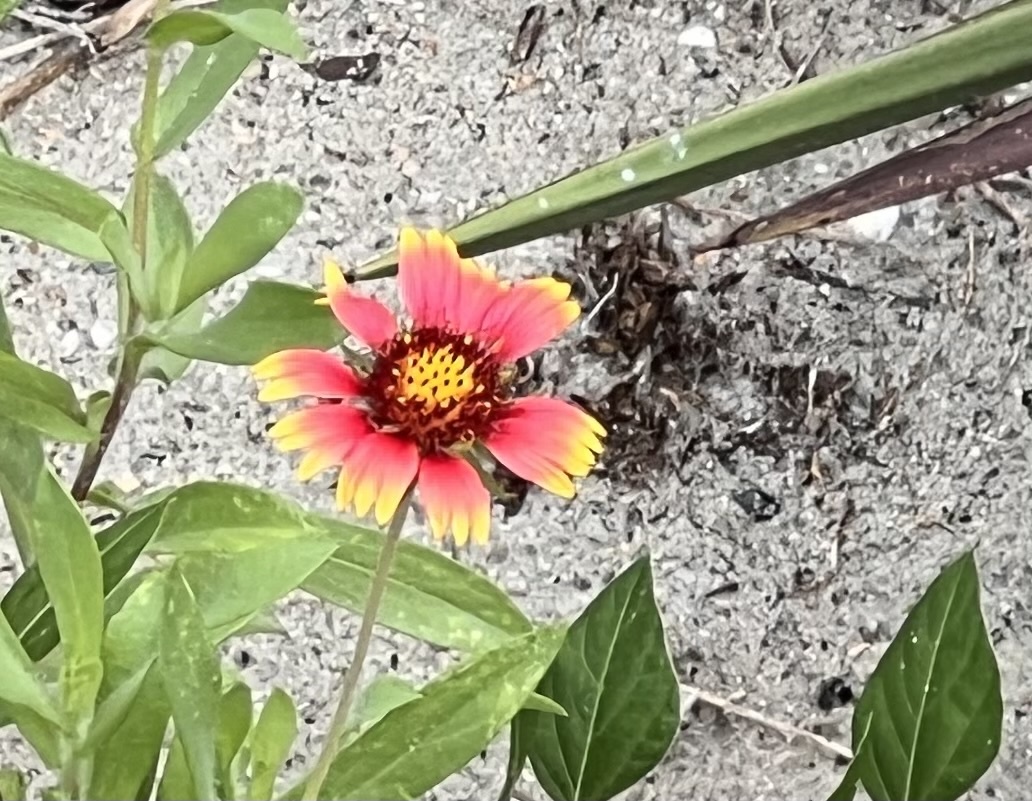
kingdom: Plantae
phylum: Tracheophyta
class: Magnoliopsida
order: Asterales
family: Asteraceae
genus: Gaillardia
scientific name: Gaillardia pulchella
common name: Firewheel
